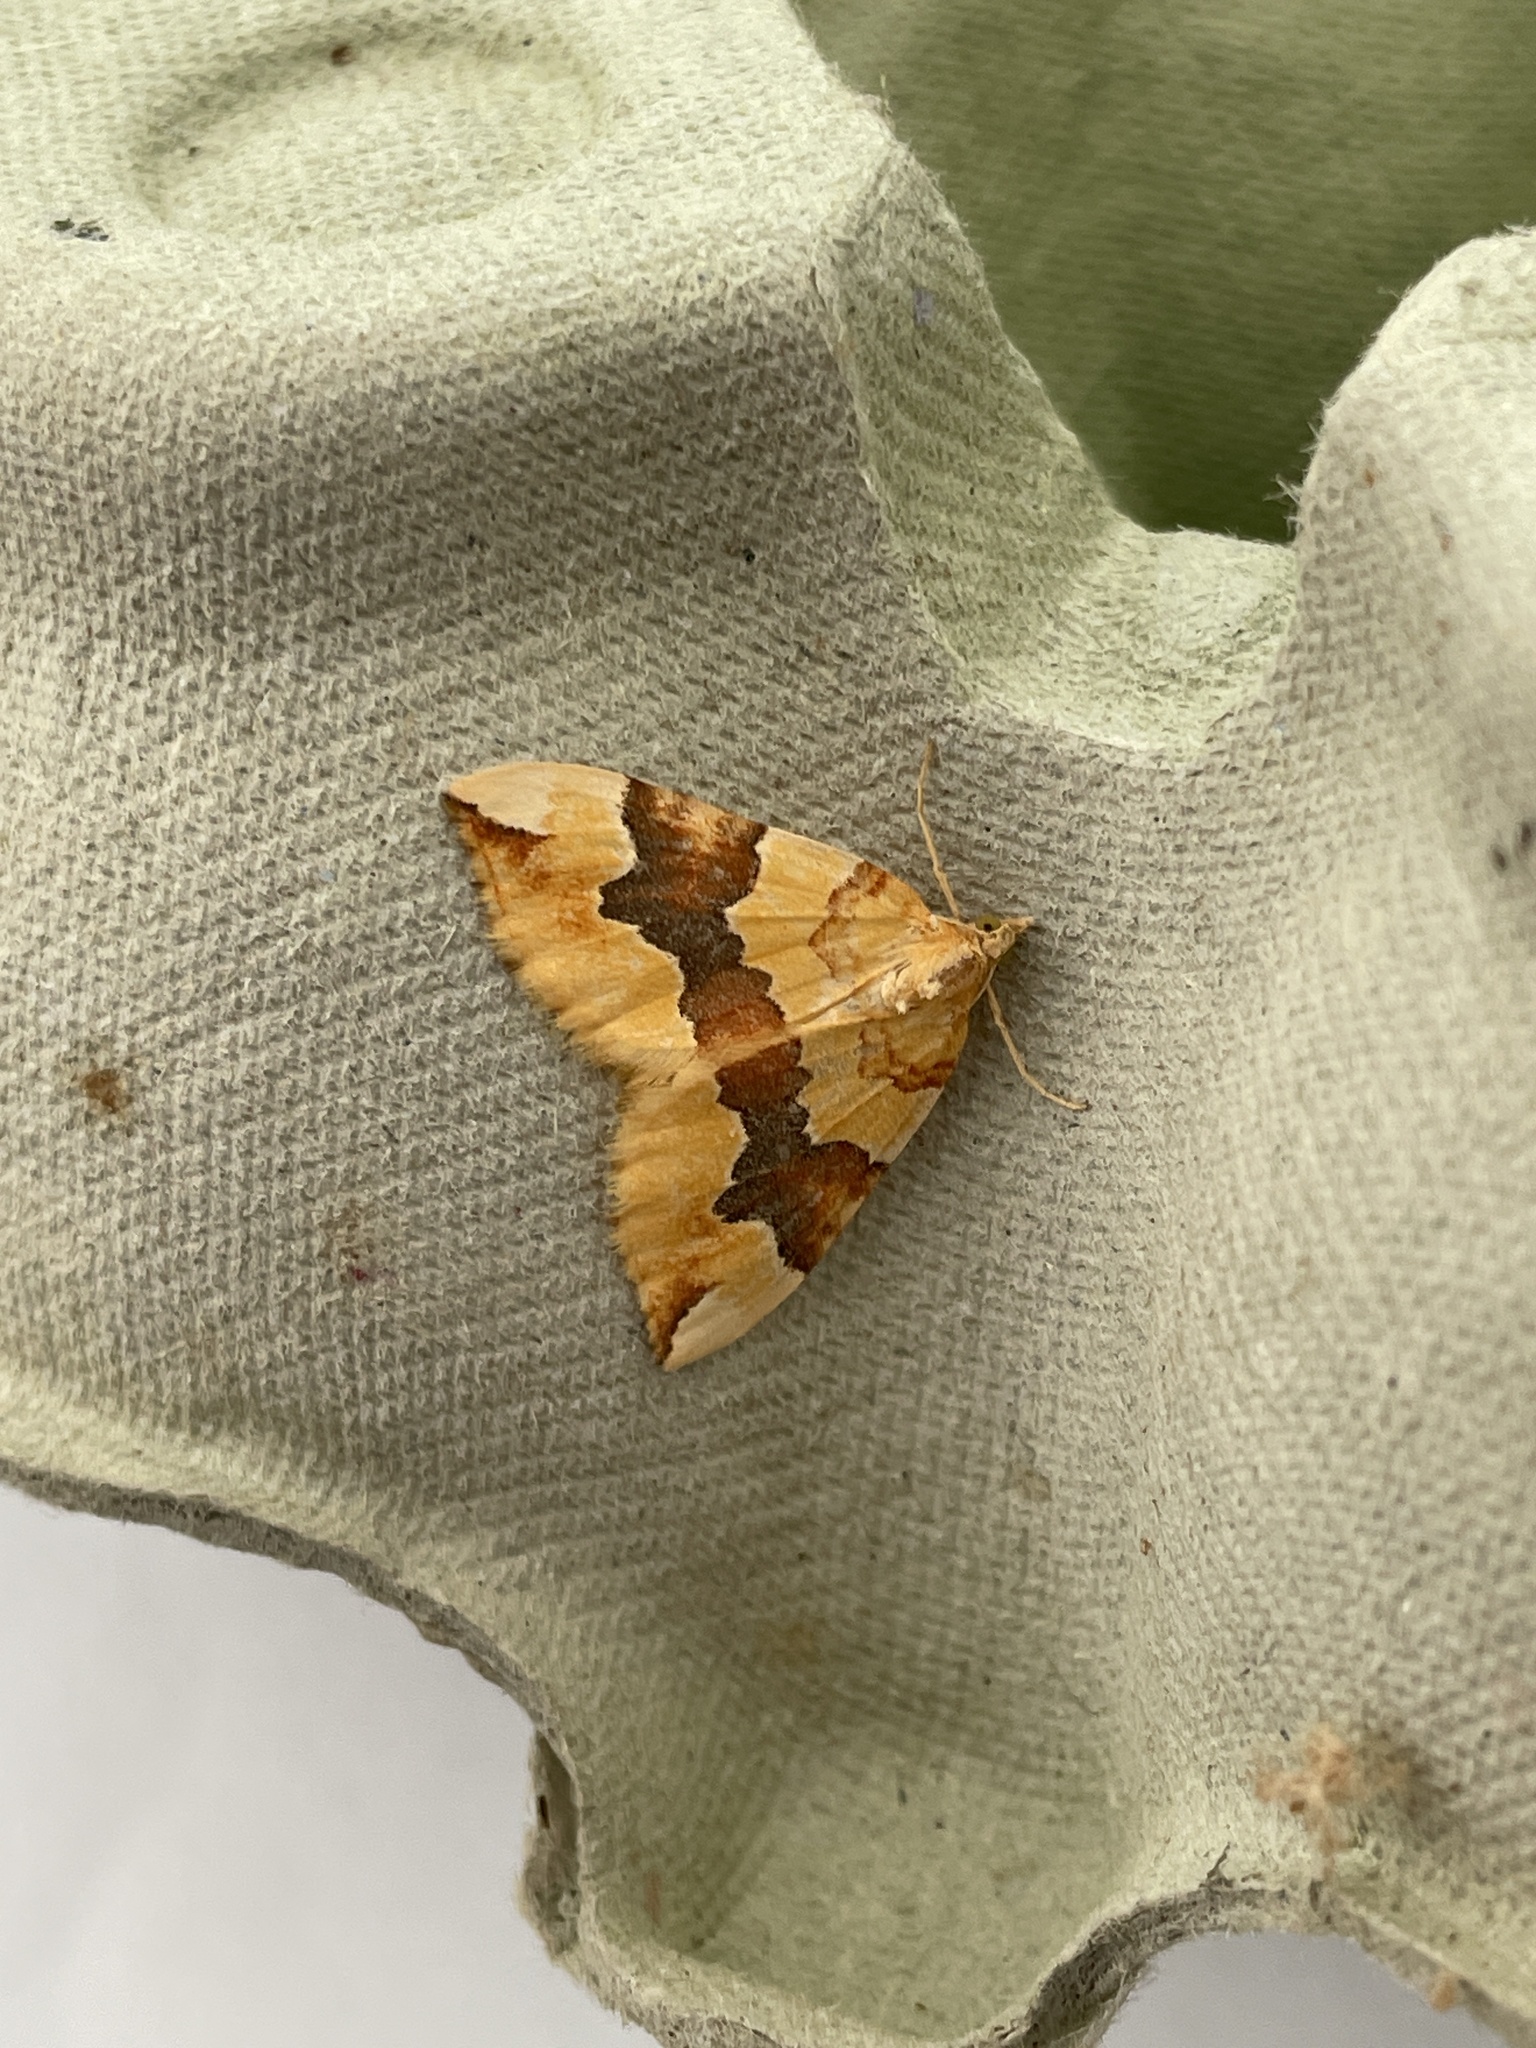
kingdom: Animalia
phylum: Arthropoda
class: Insecta
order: Lepidoptera
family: Geometridae
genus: Cidaria
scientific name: Cidaria fulvata
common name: Barred yellow
